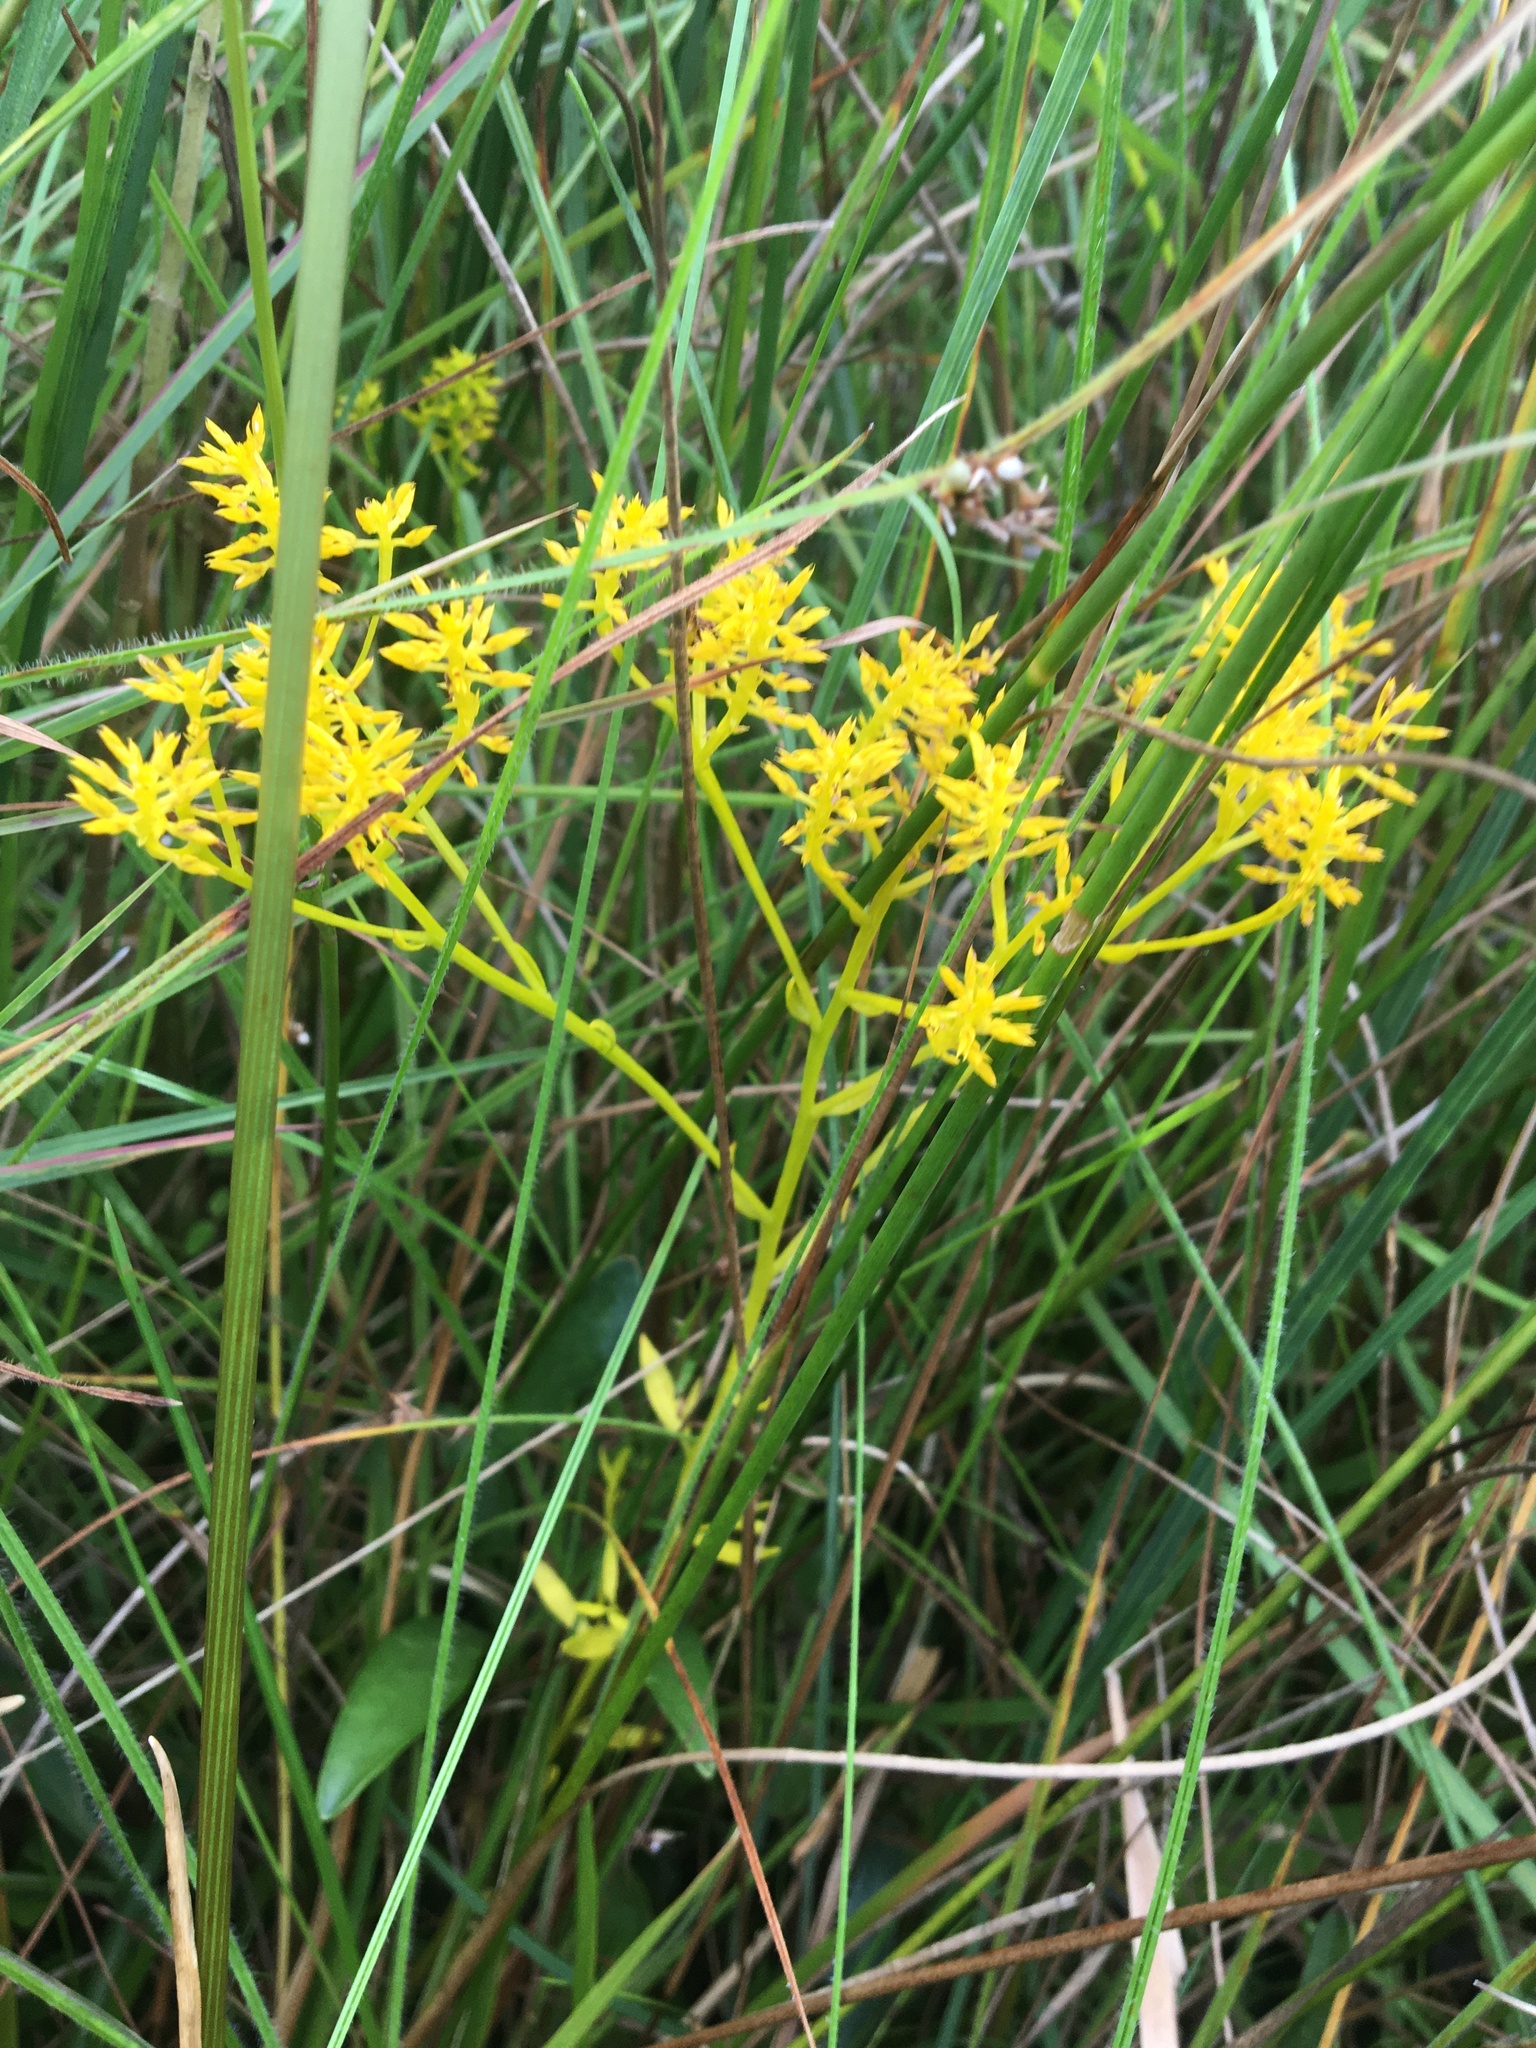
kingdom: Plantae
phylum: Tracheophyta
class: Magnoliopsida
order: Fabales
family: Polygalaceae
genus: Polygala
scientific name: Polygala ramosa
